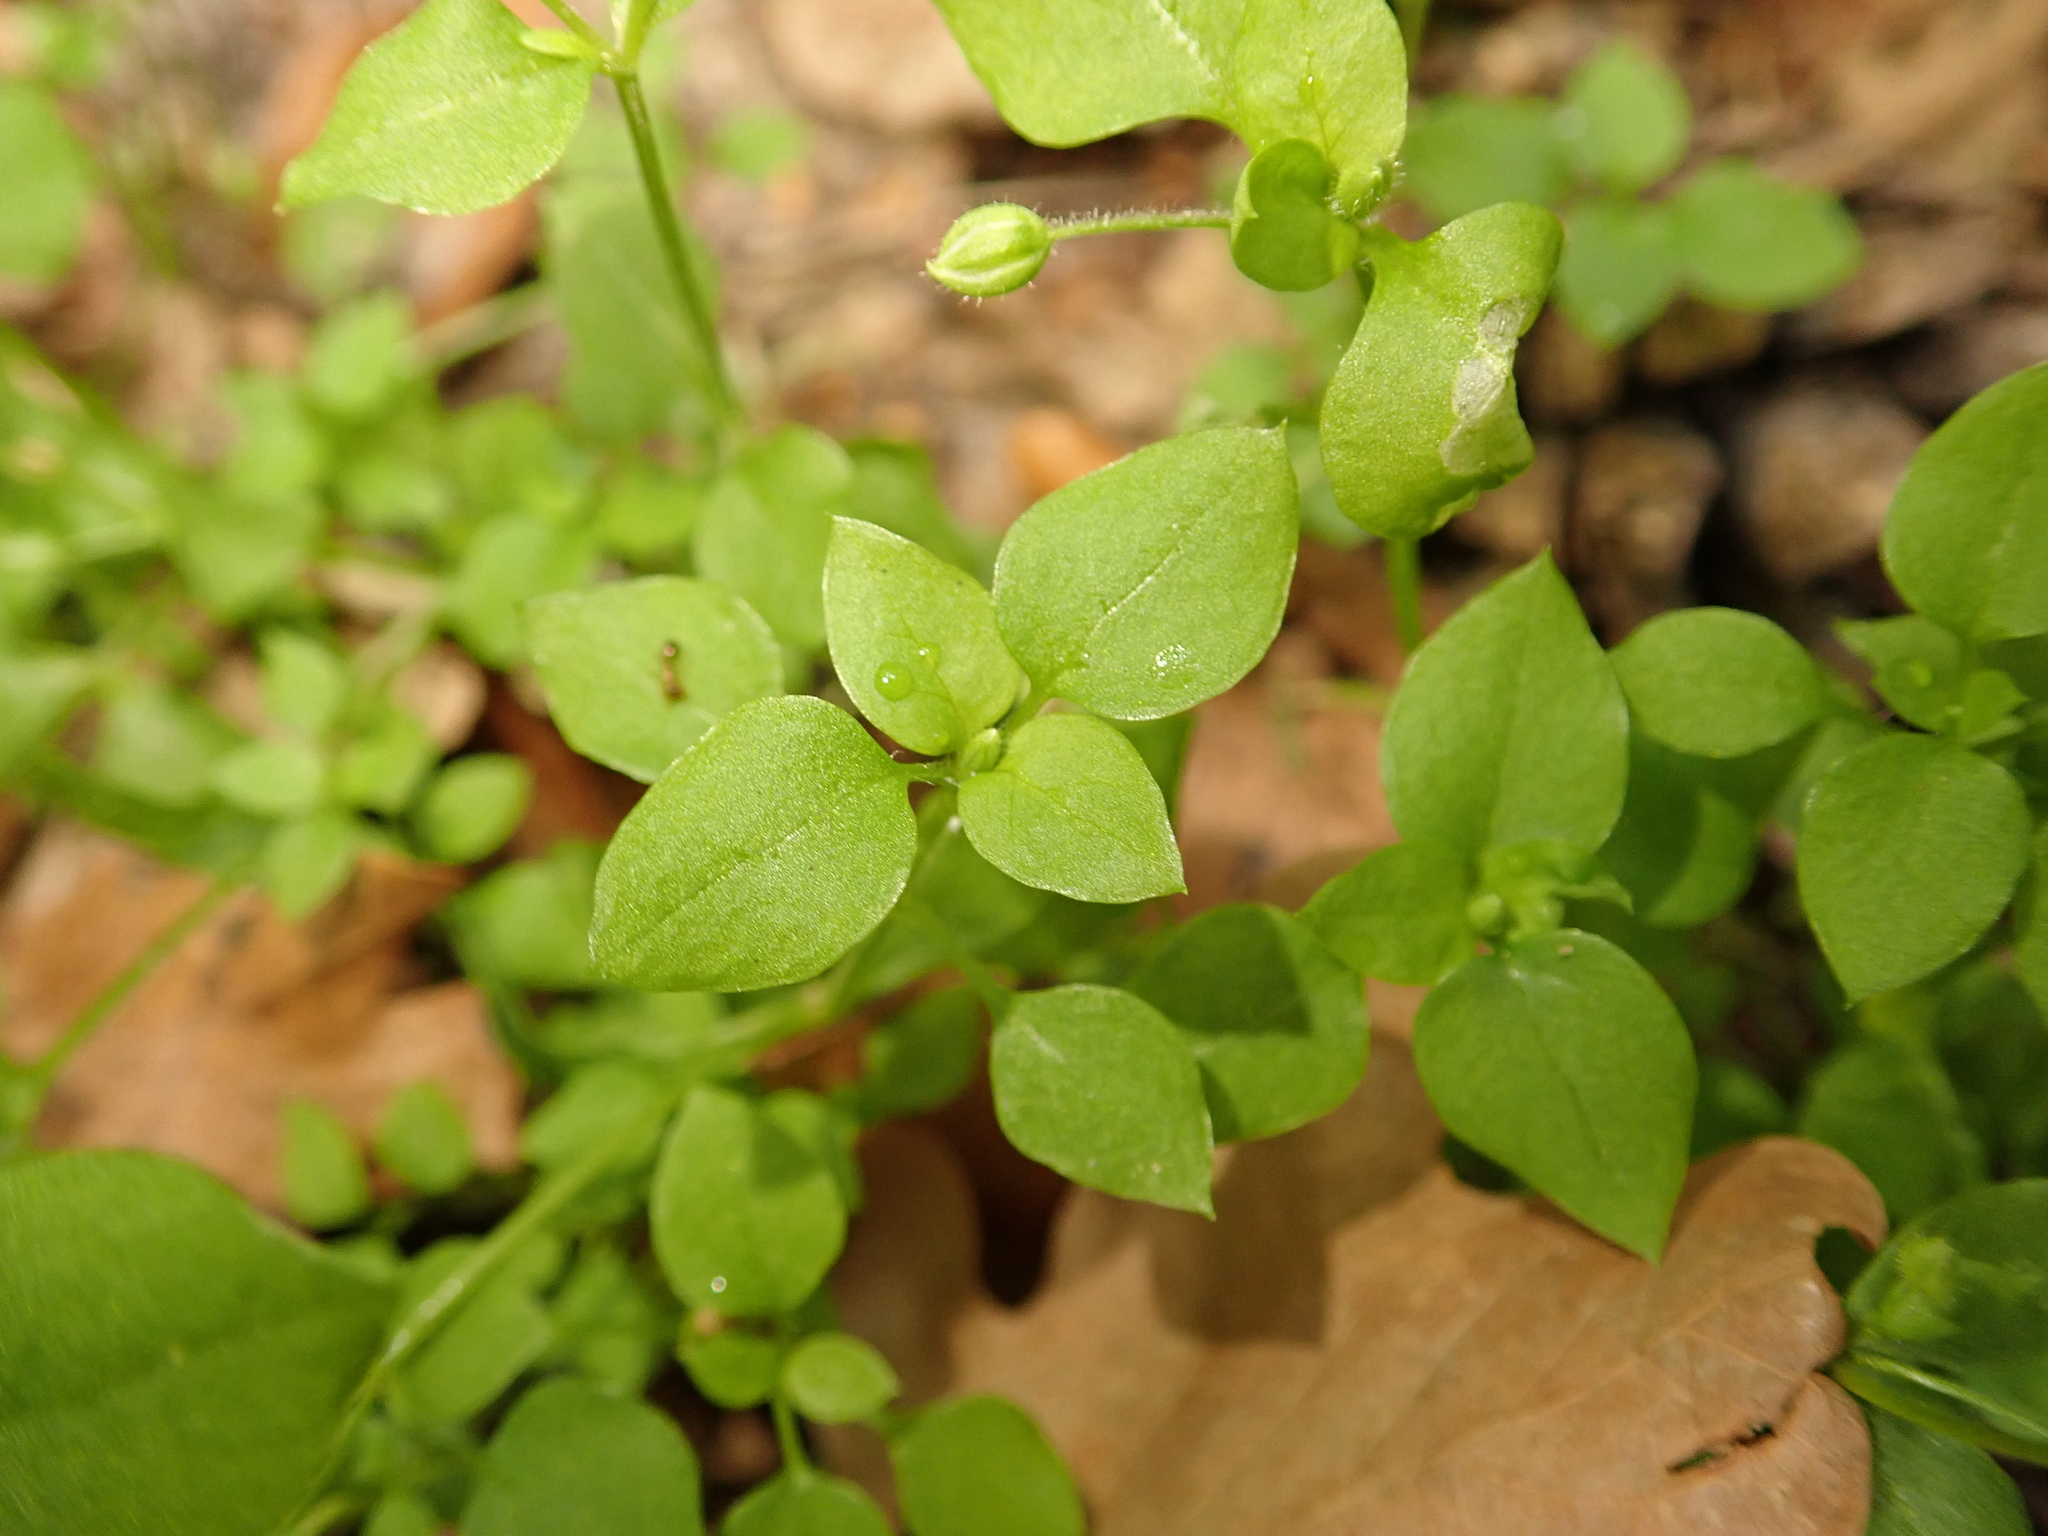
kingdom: Plantae
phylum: Tracheophyta
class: Magnoliopsida
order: Caryophyllales
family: Caryophyllaceae
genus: Stellaria
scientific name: Stellaria media
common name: Common chickweed
